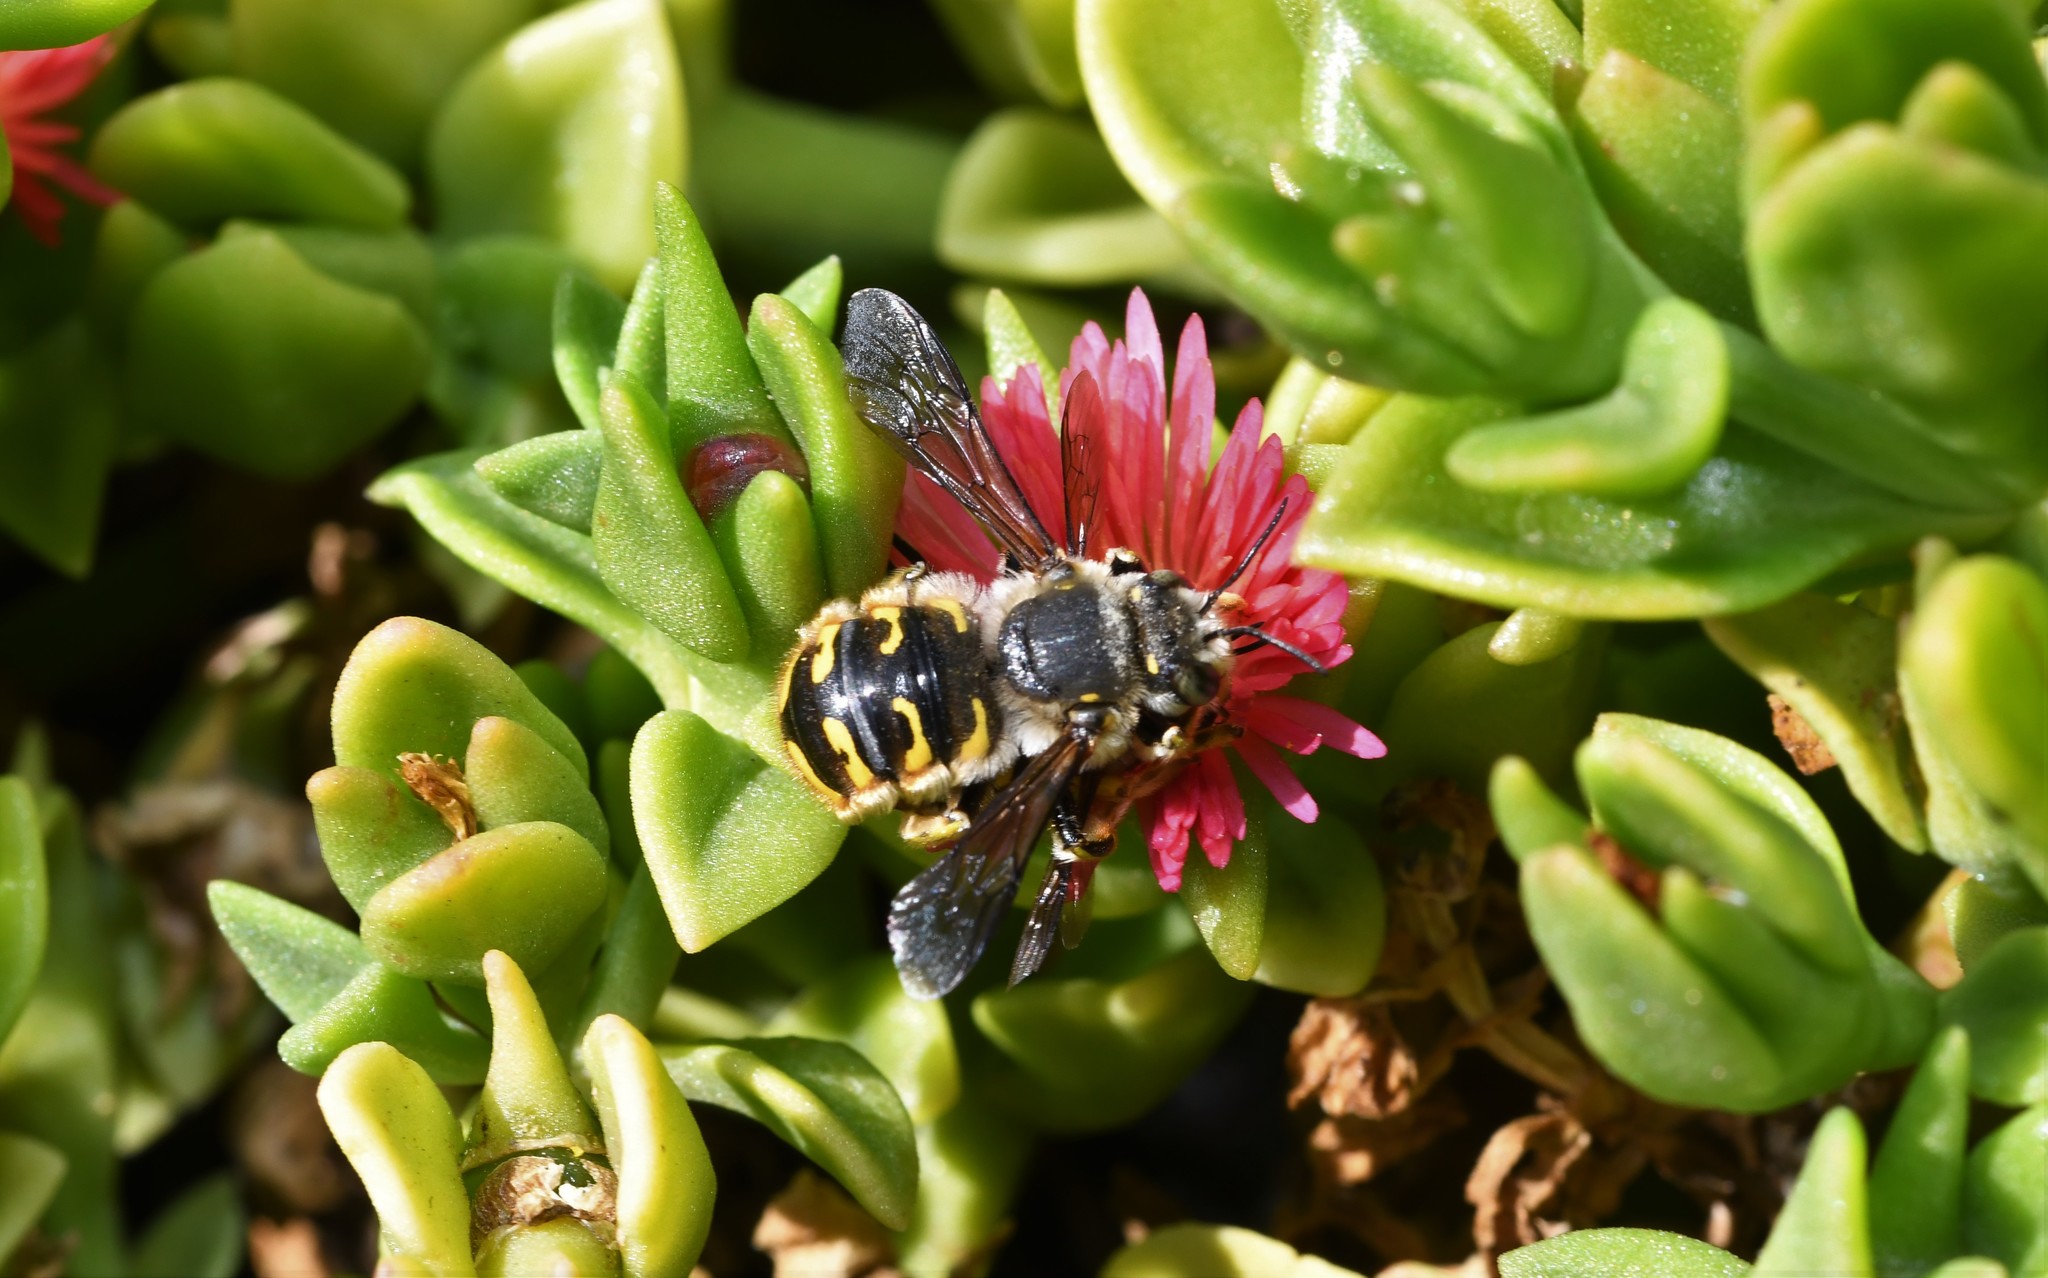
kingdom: Animalia
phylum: Arthropoda
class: Insecta
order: Hymenoptera
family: Megachilidae
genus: Anthidium
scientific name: Anthidium manicatum
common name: Wool carder bee
